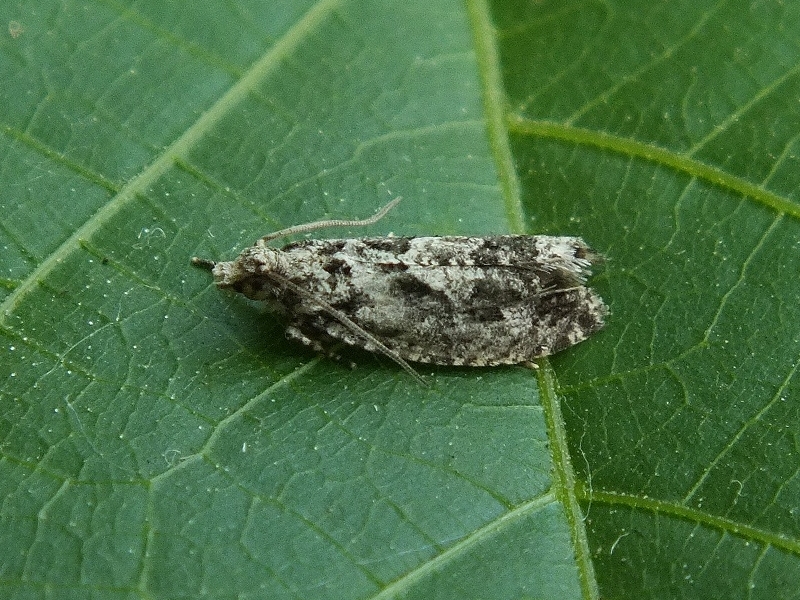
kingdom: Animalia
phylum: Arthropoda
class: Insecta
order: Lepidoptera
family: Tortricidae
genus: Zeiraphera
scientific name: Zeiraphera isertana
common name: Cock's-head bell
